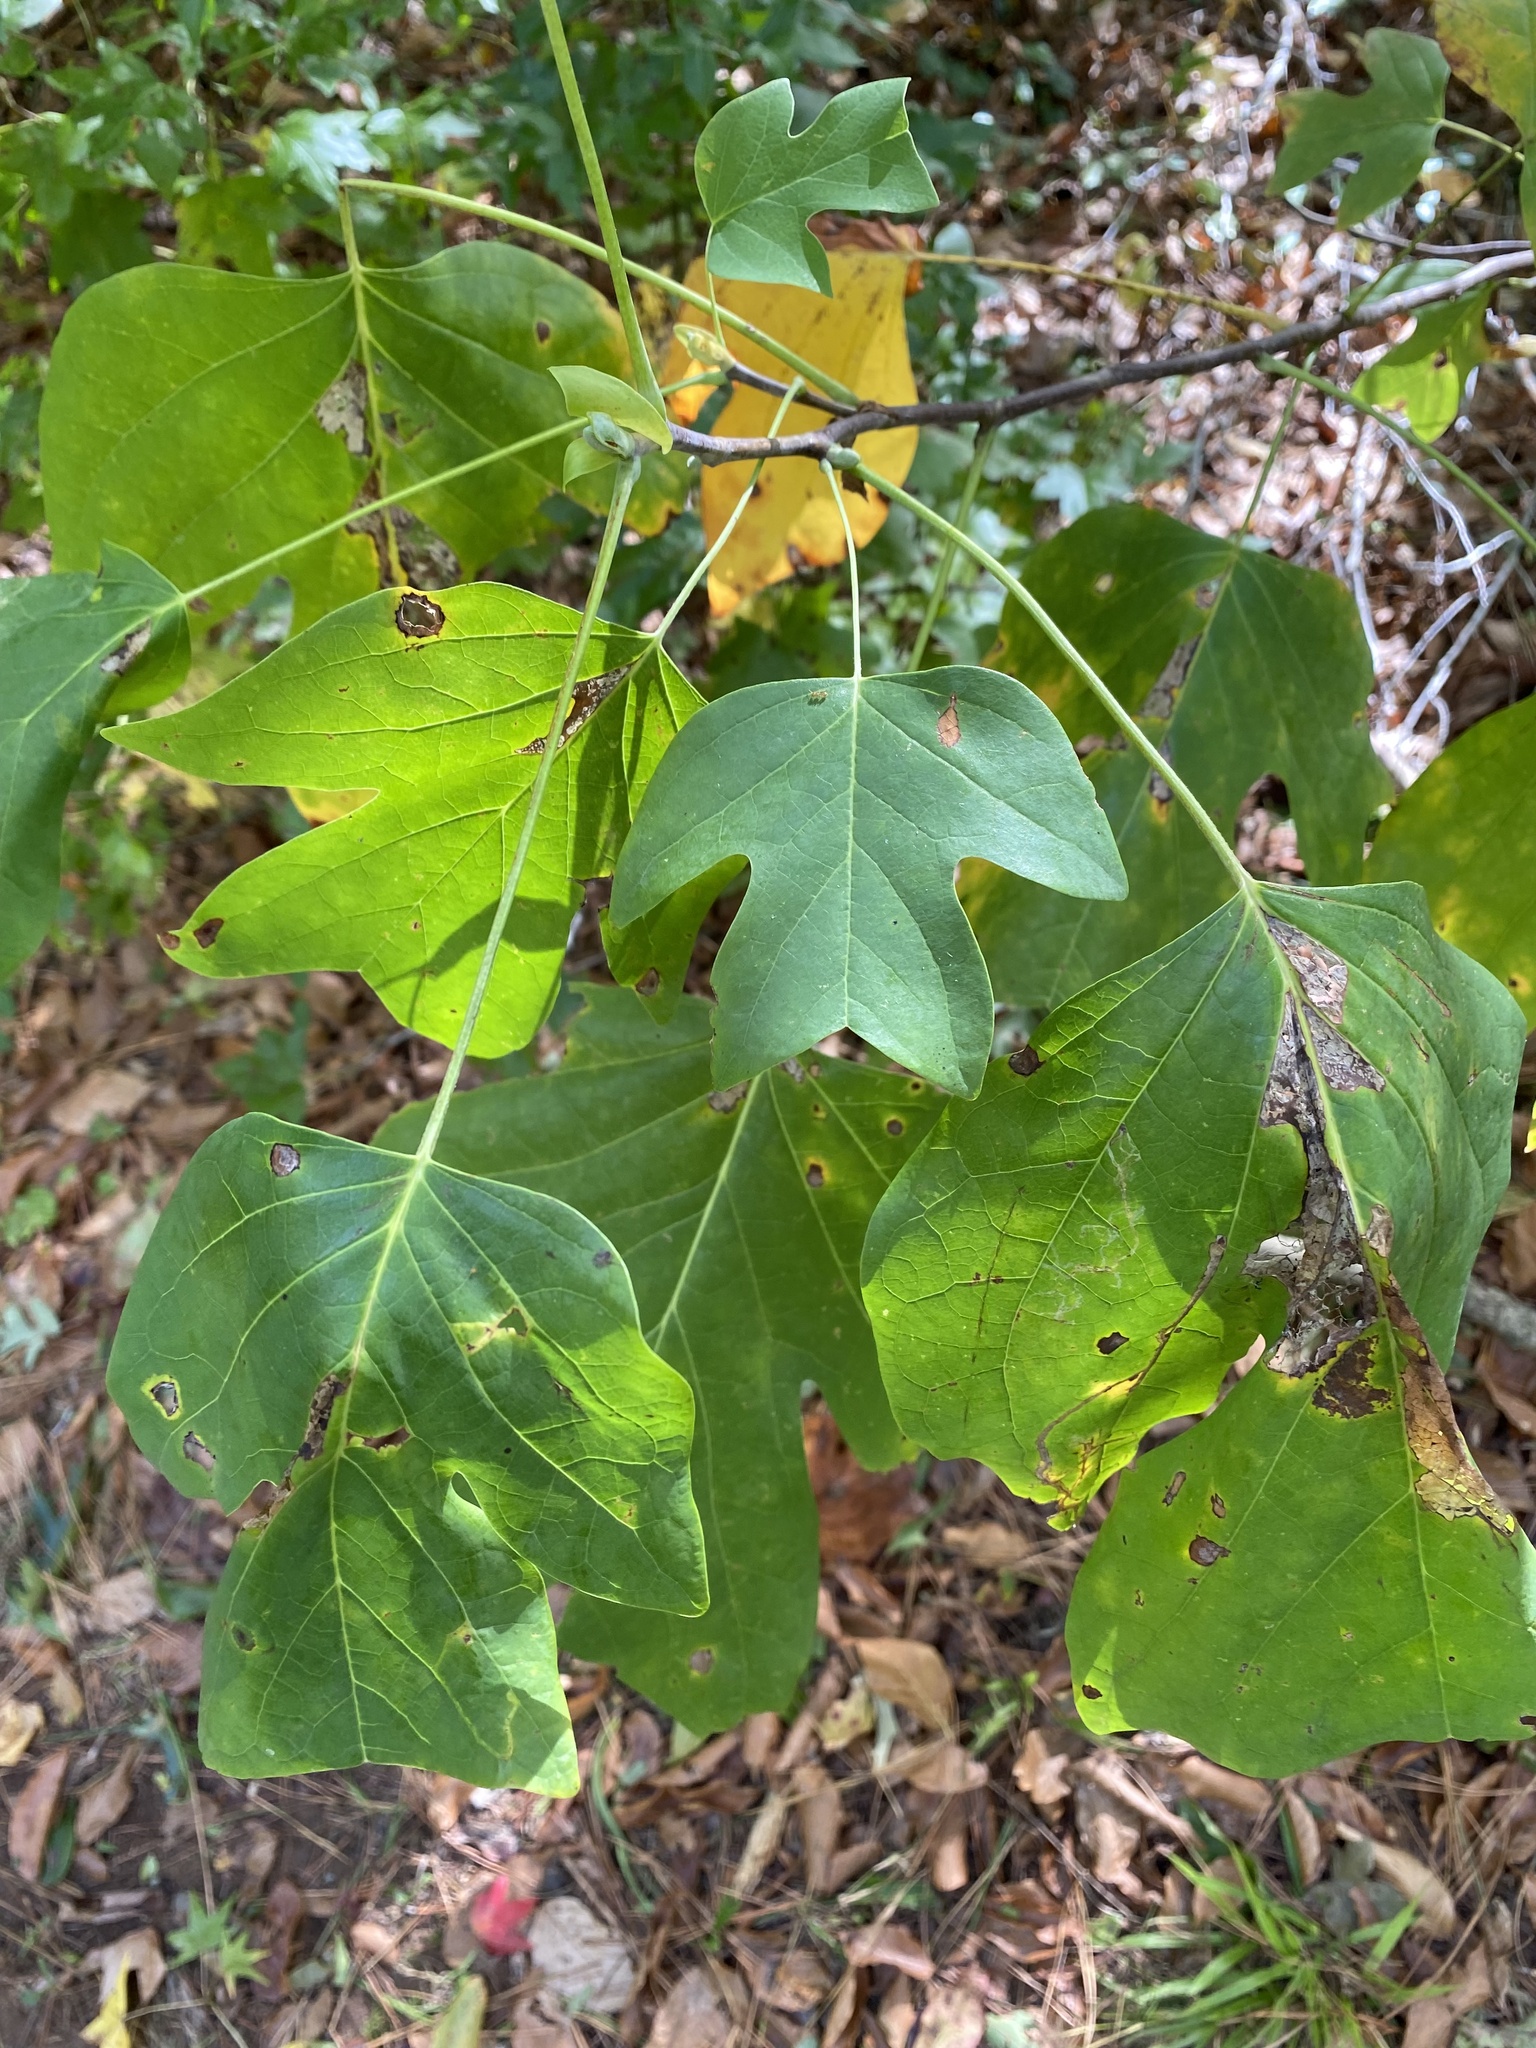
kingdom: Animalia
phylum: Arthropoda
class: Insecta
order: Lepidoptera
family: Gracillariidae
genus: Phyllocnistis
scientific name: Phyllocnistis liriodendronella
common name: Tulip tree leaf miner
